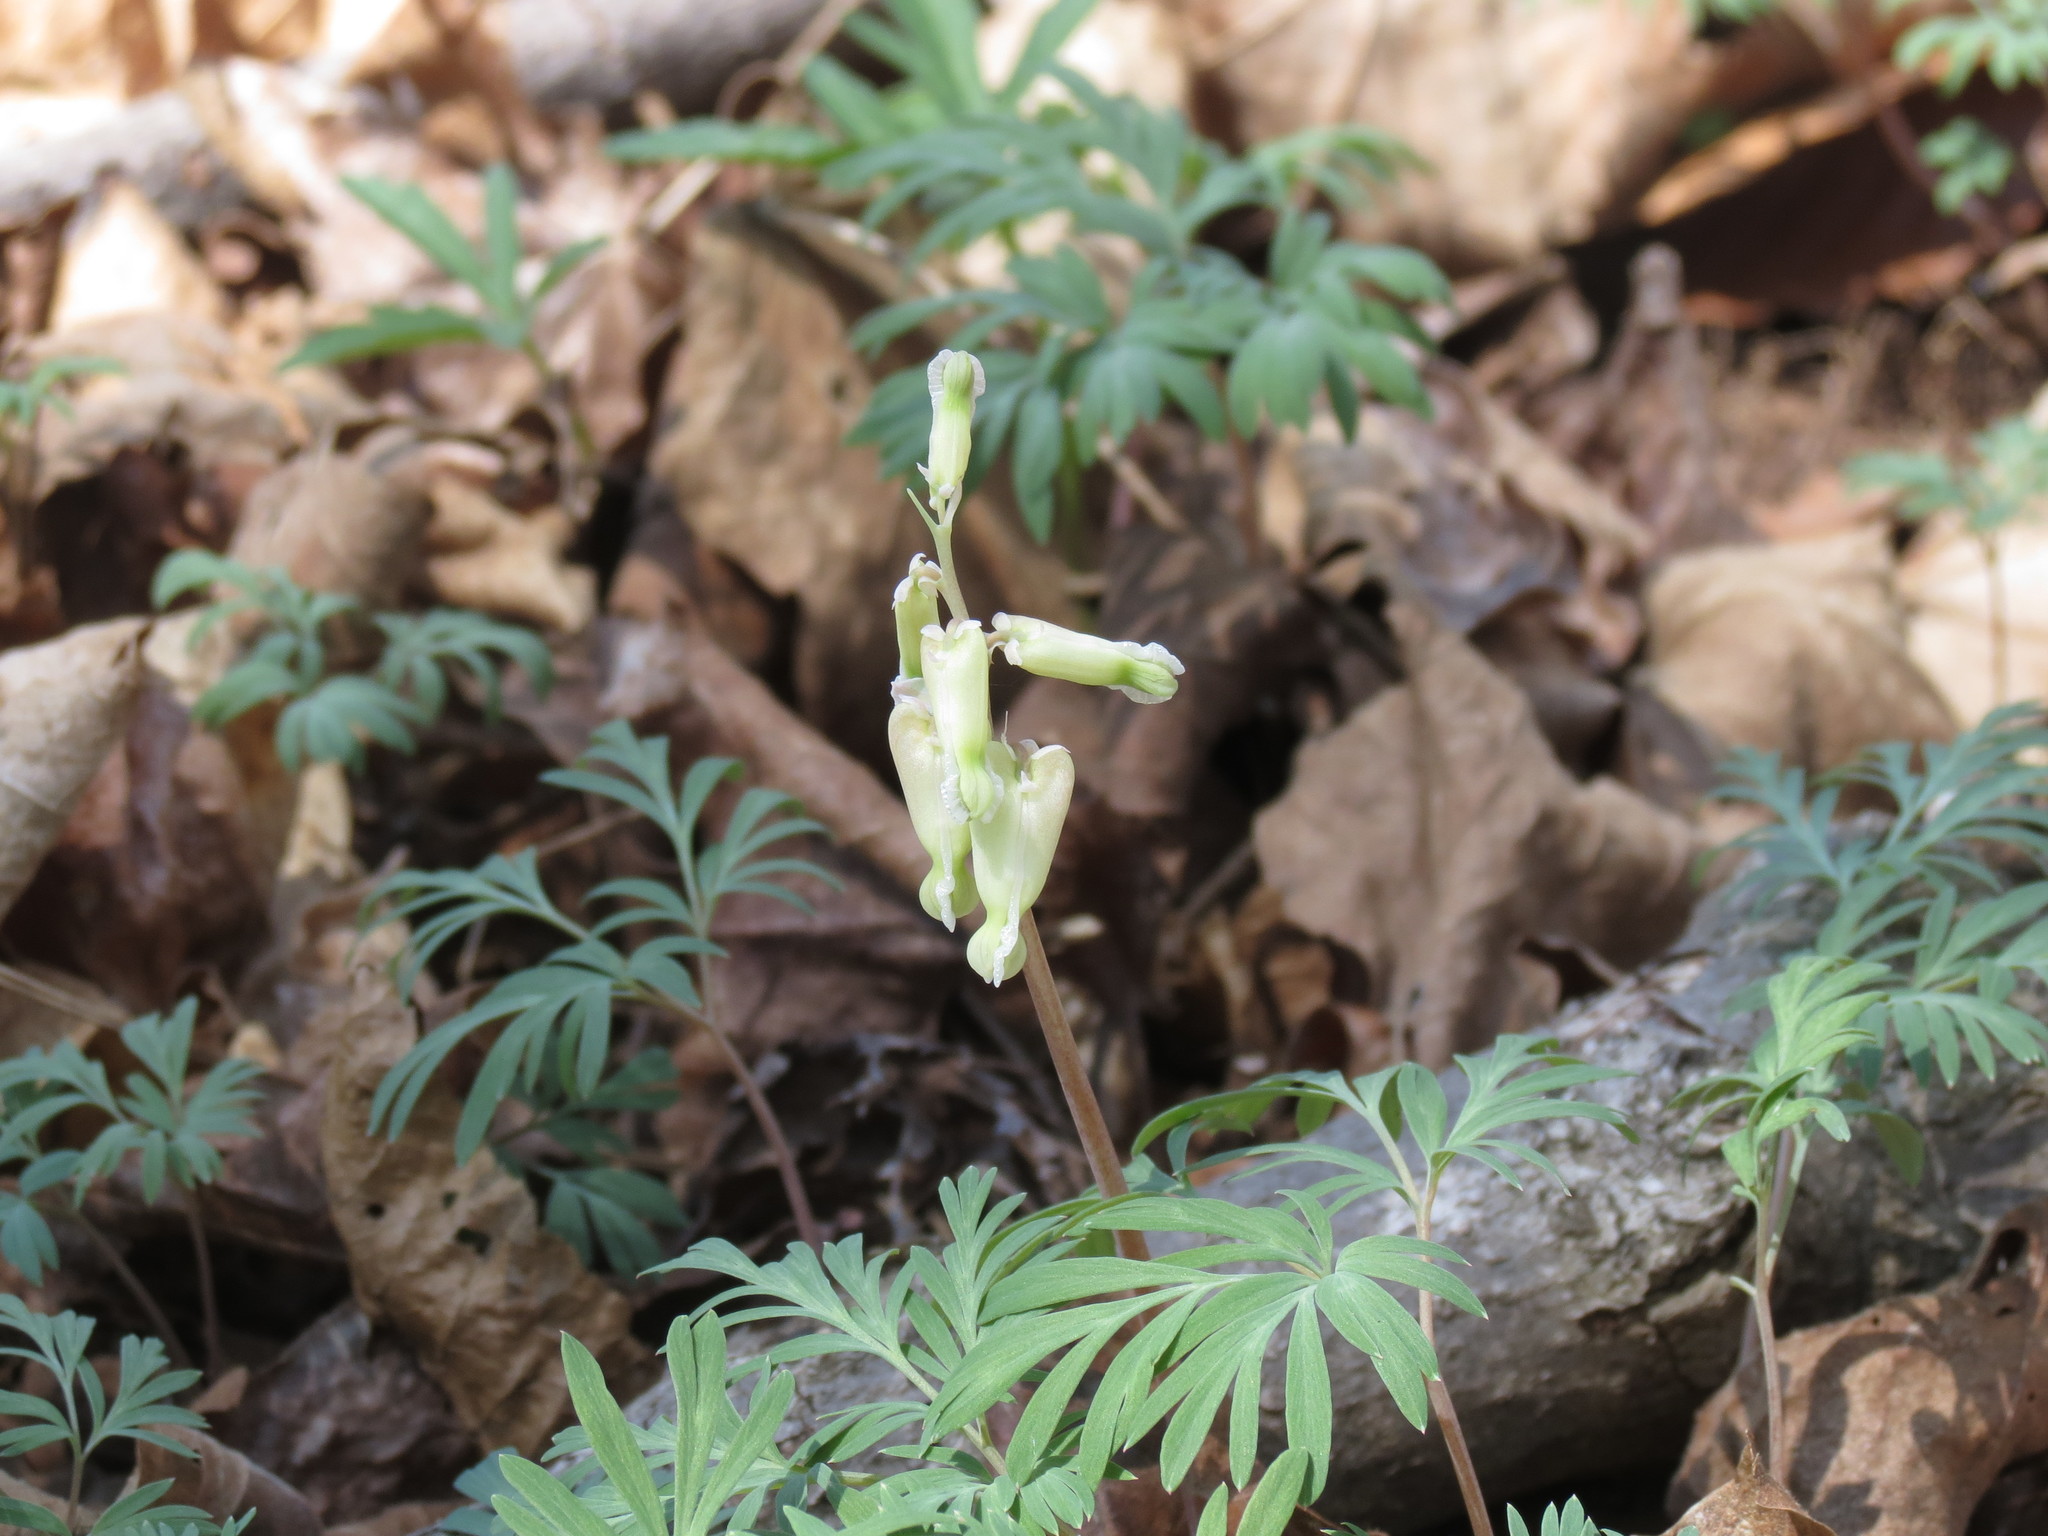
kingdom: Plantae
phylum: Tracheophyta
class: Magnoliopsida
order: Ranunculales
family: Papaveraceae
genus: Dicentra
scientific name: Dicentra canadensis
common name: Squirrel-corn
